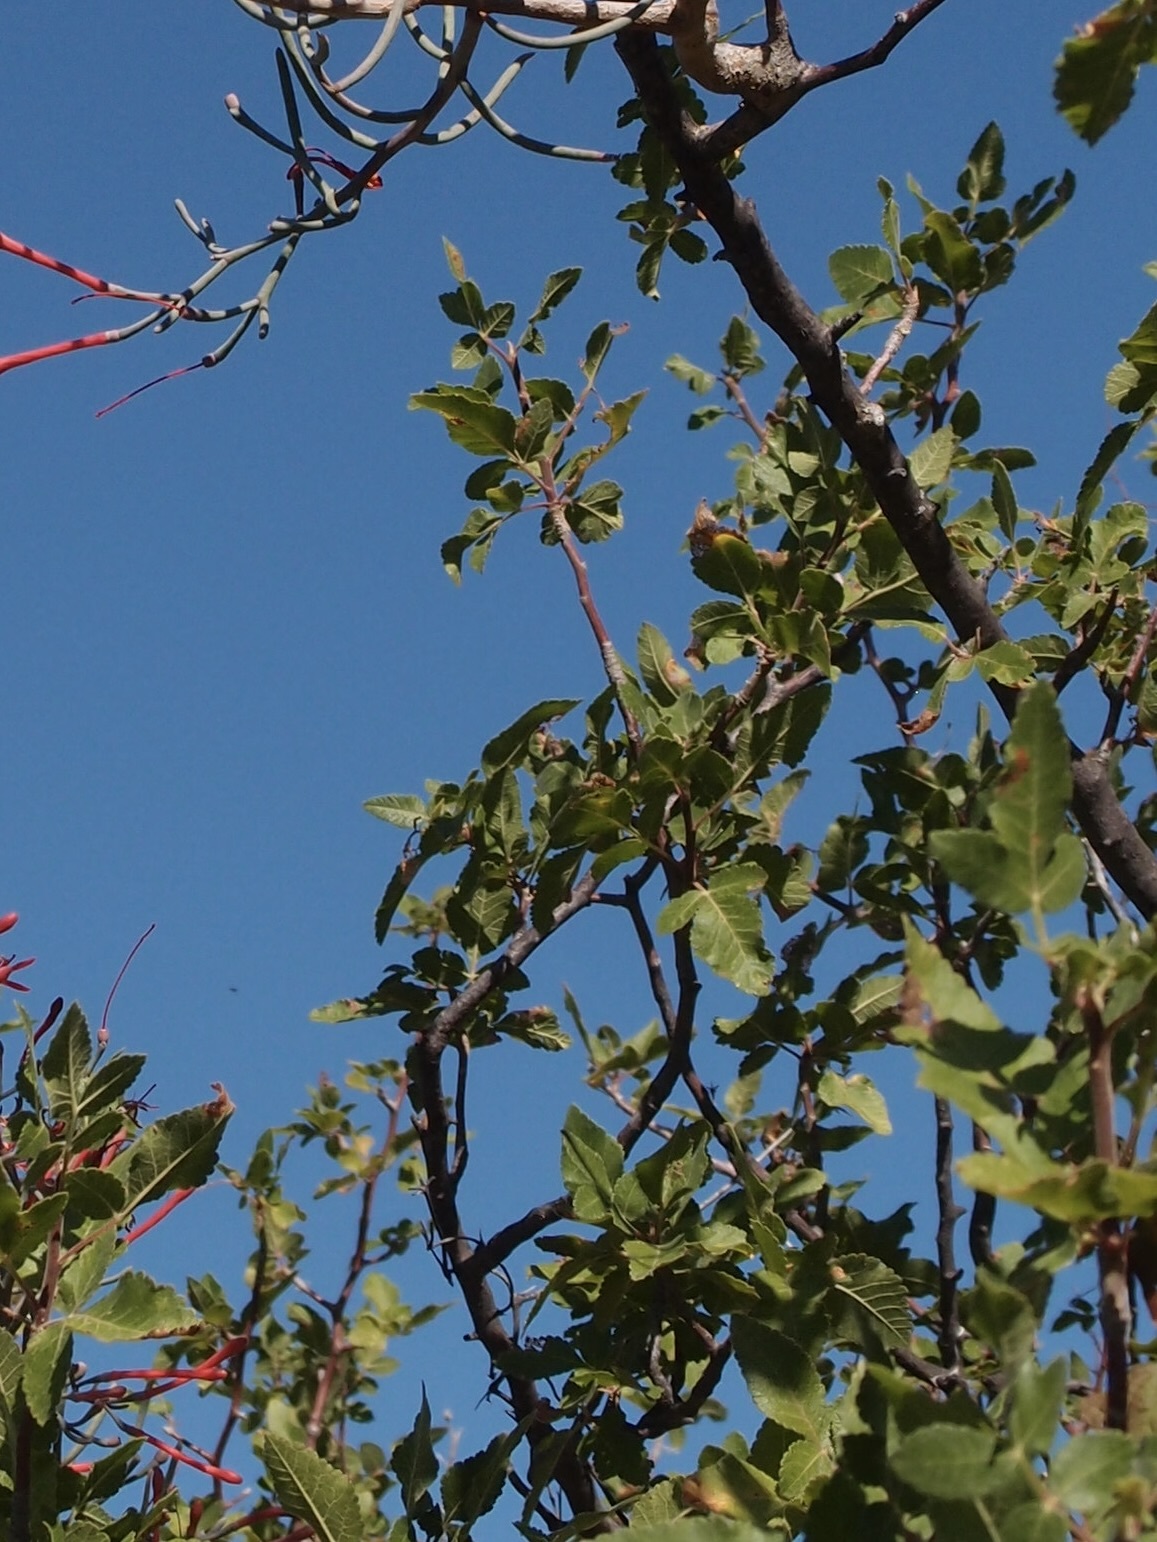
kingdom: Plantae
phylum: Tracheophyta
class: Magnoliopsida
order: Sapindales
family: Burseraceae
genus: Bursera
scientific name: Bursera hindsiana
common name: Red elephant tree
